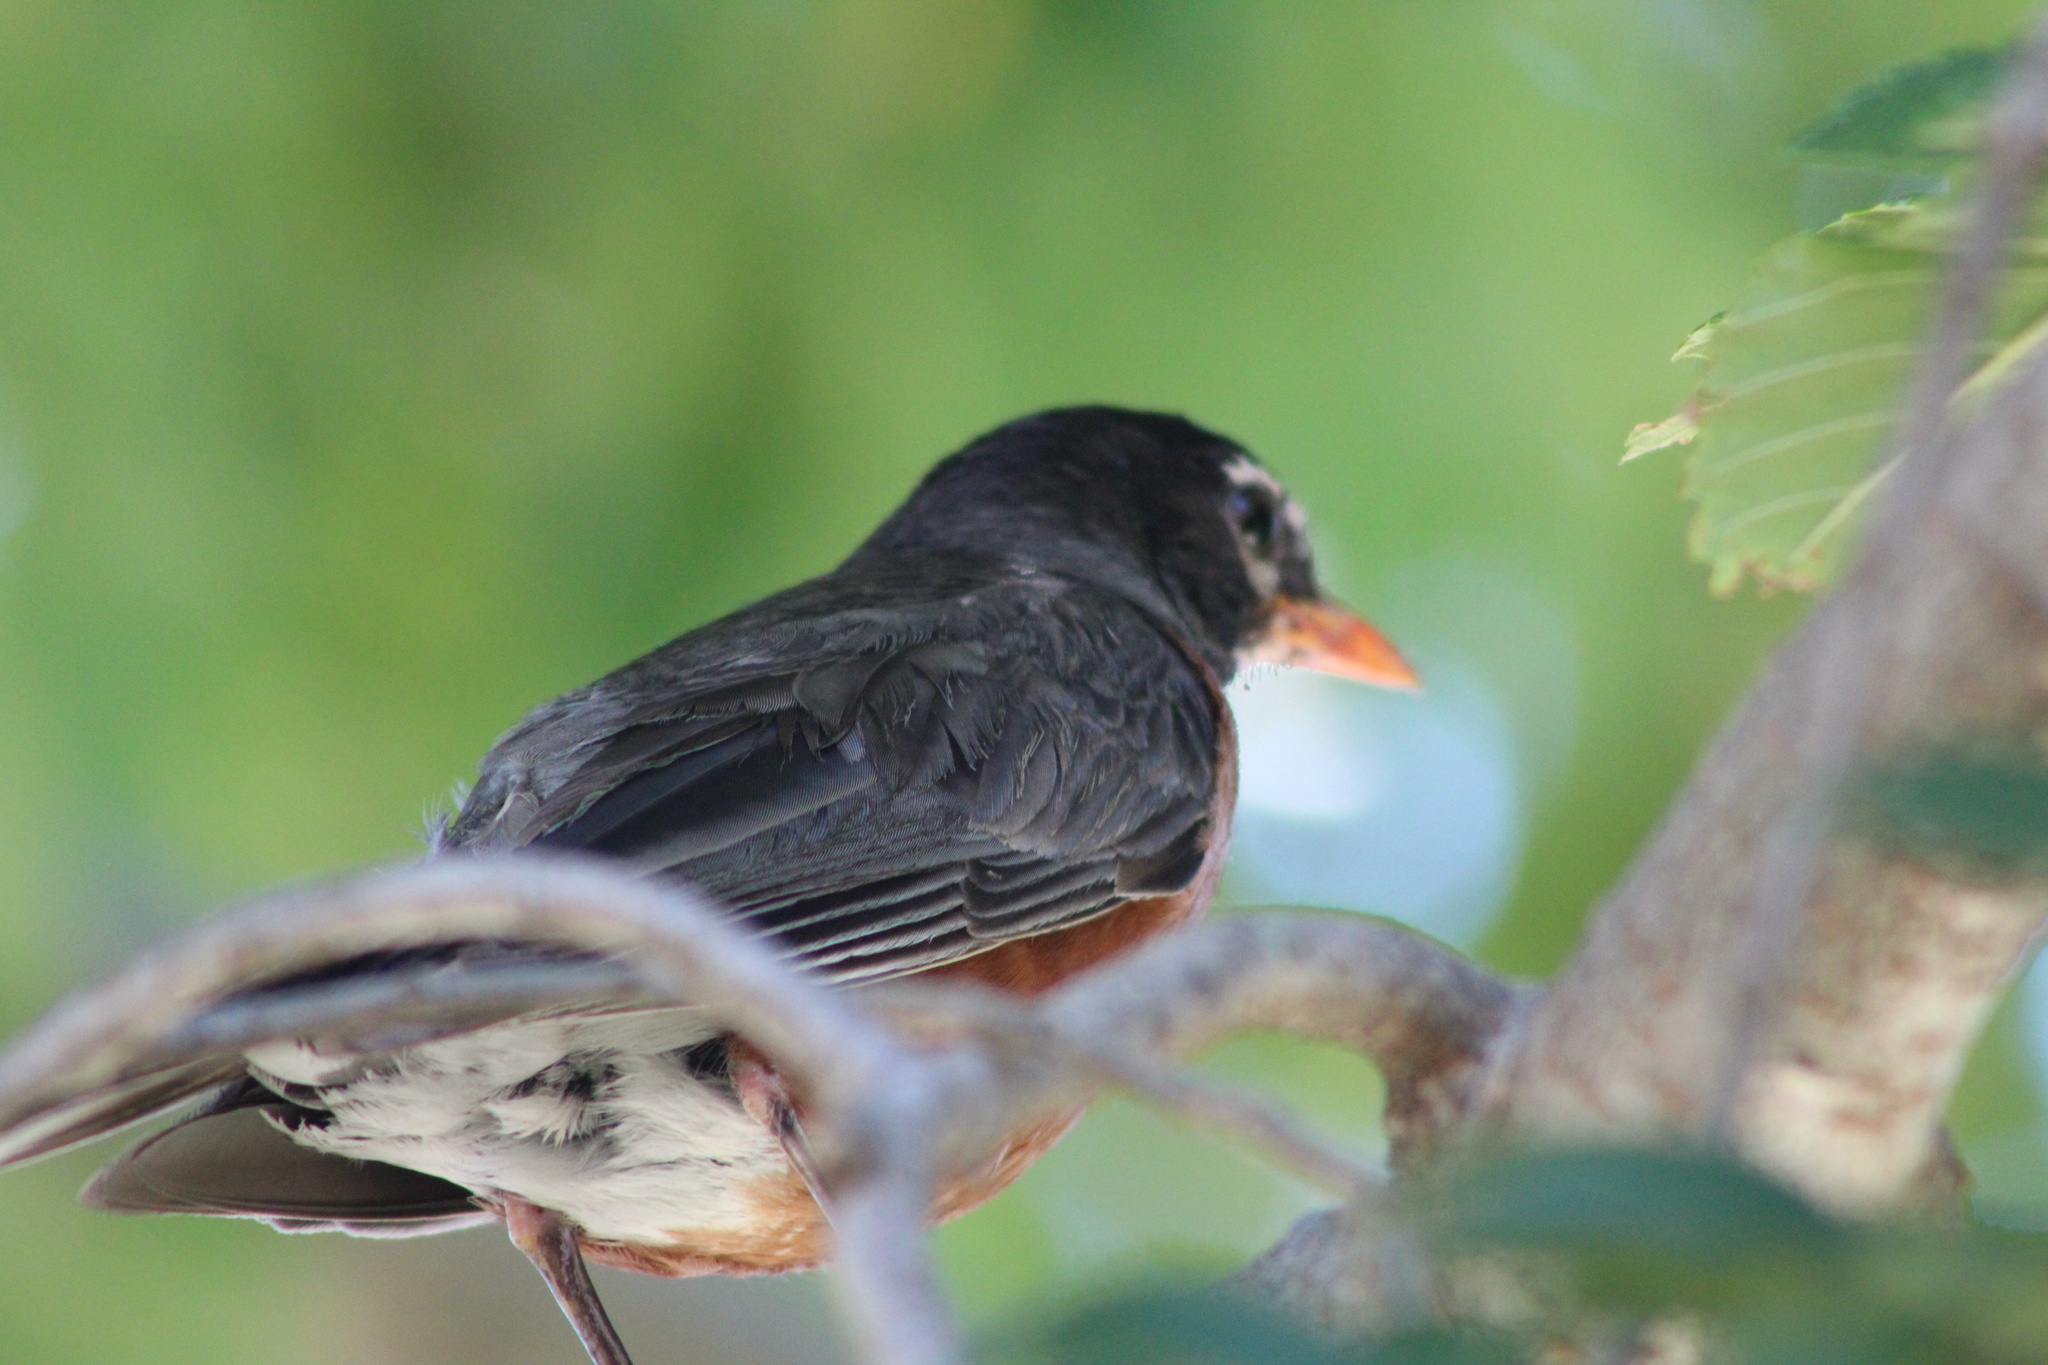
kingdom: Animalia
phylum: Chordata
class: Aves
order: Passeriformes
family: Turdidae
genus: Turdus
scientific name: Turdus migratorius
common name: American robin
